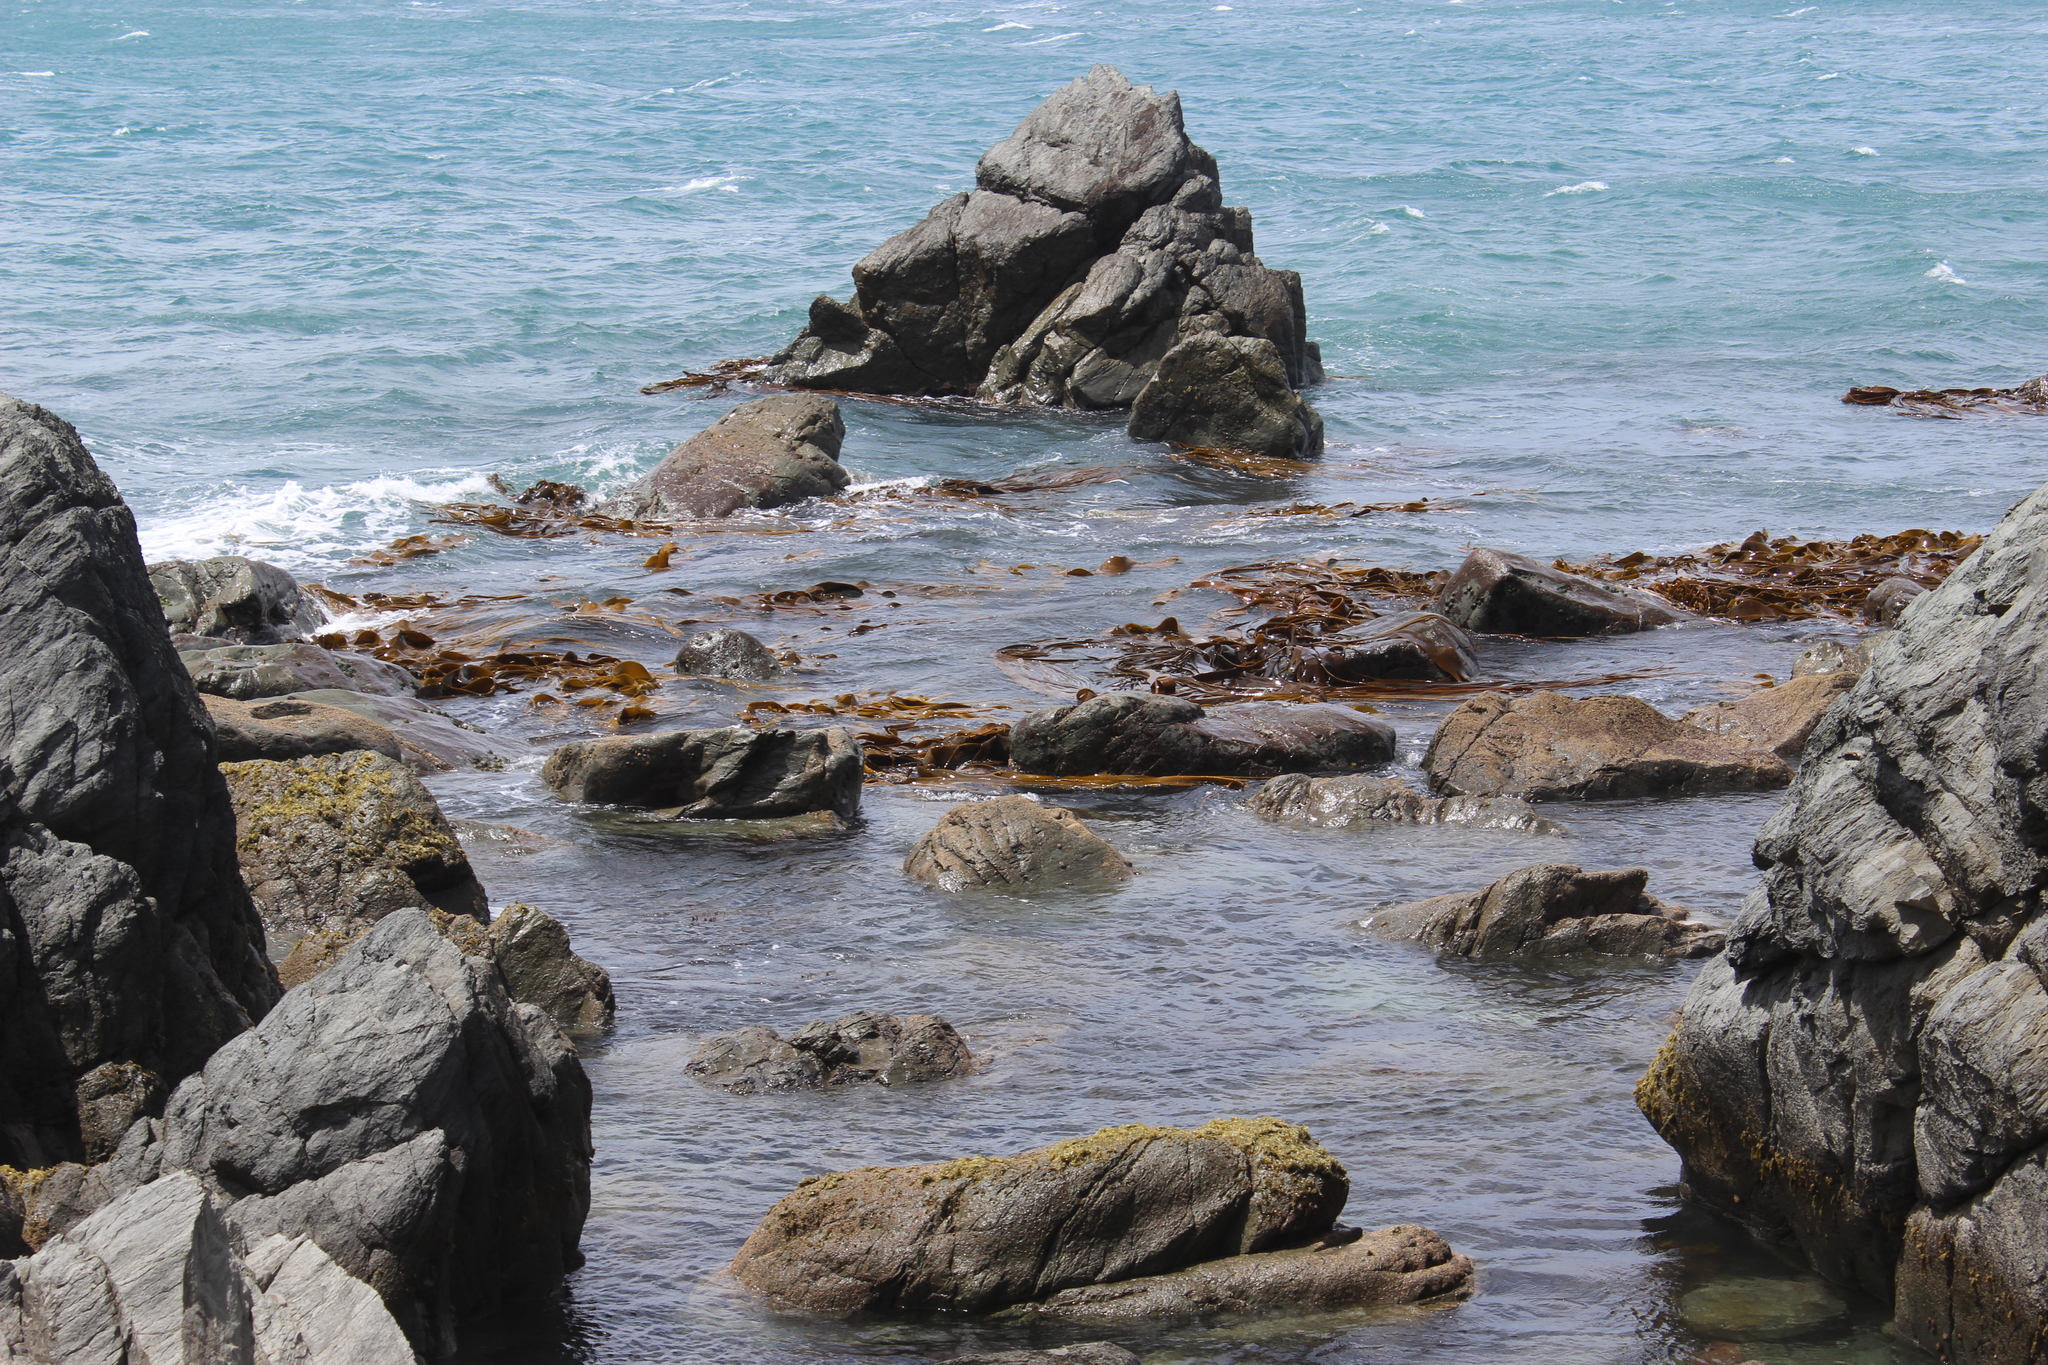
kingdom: Chromista
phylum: Ochrophyta
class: Phaeophyceae
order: Fucales
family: Durvillaeaceae
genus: Durvillaea
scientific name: Durvillaea antarctica
